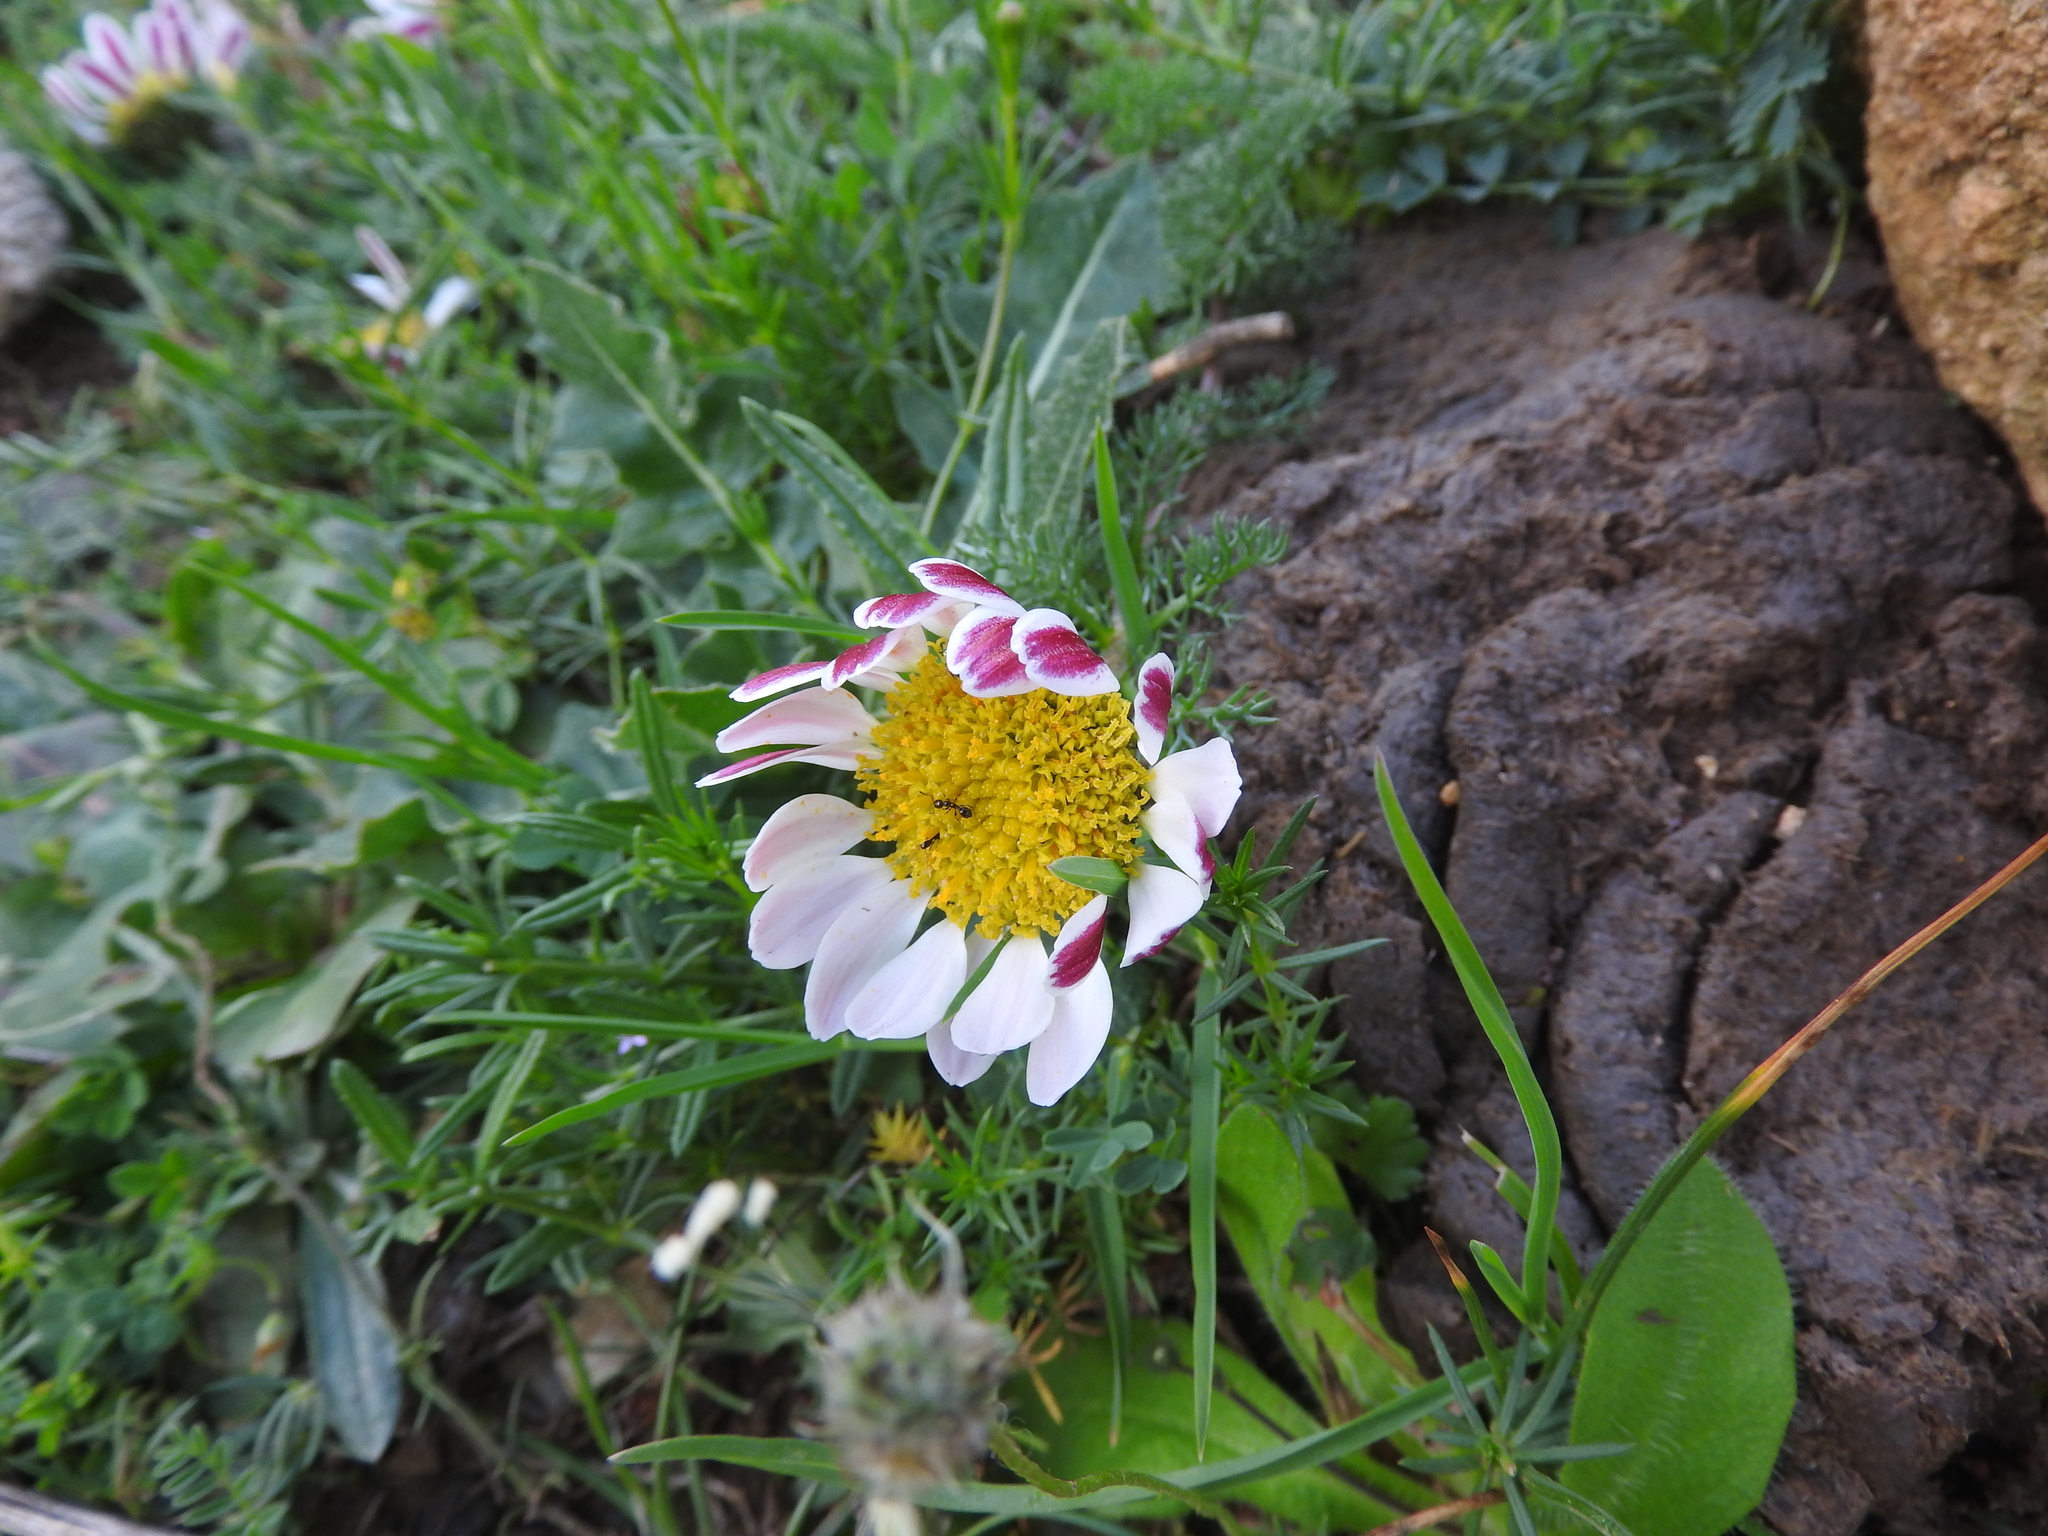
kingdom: Plantae
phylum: Tracheophyta
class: Magnoliopsida
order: Asterales
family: Asteraceae
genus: Anacyclus
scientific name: Anacyclus pyrethrum
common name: Mt. atlas daisy
